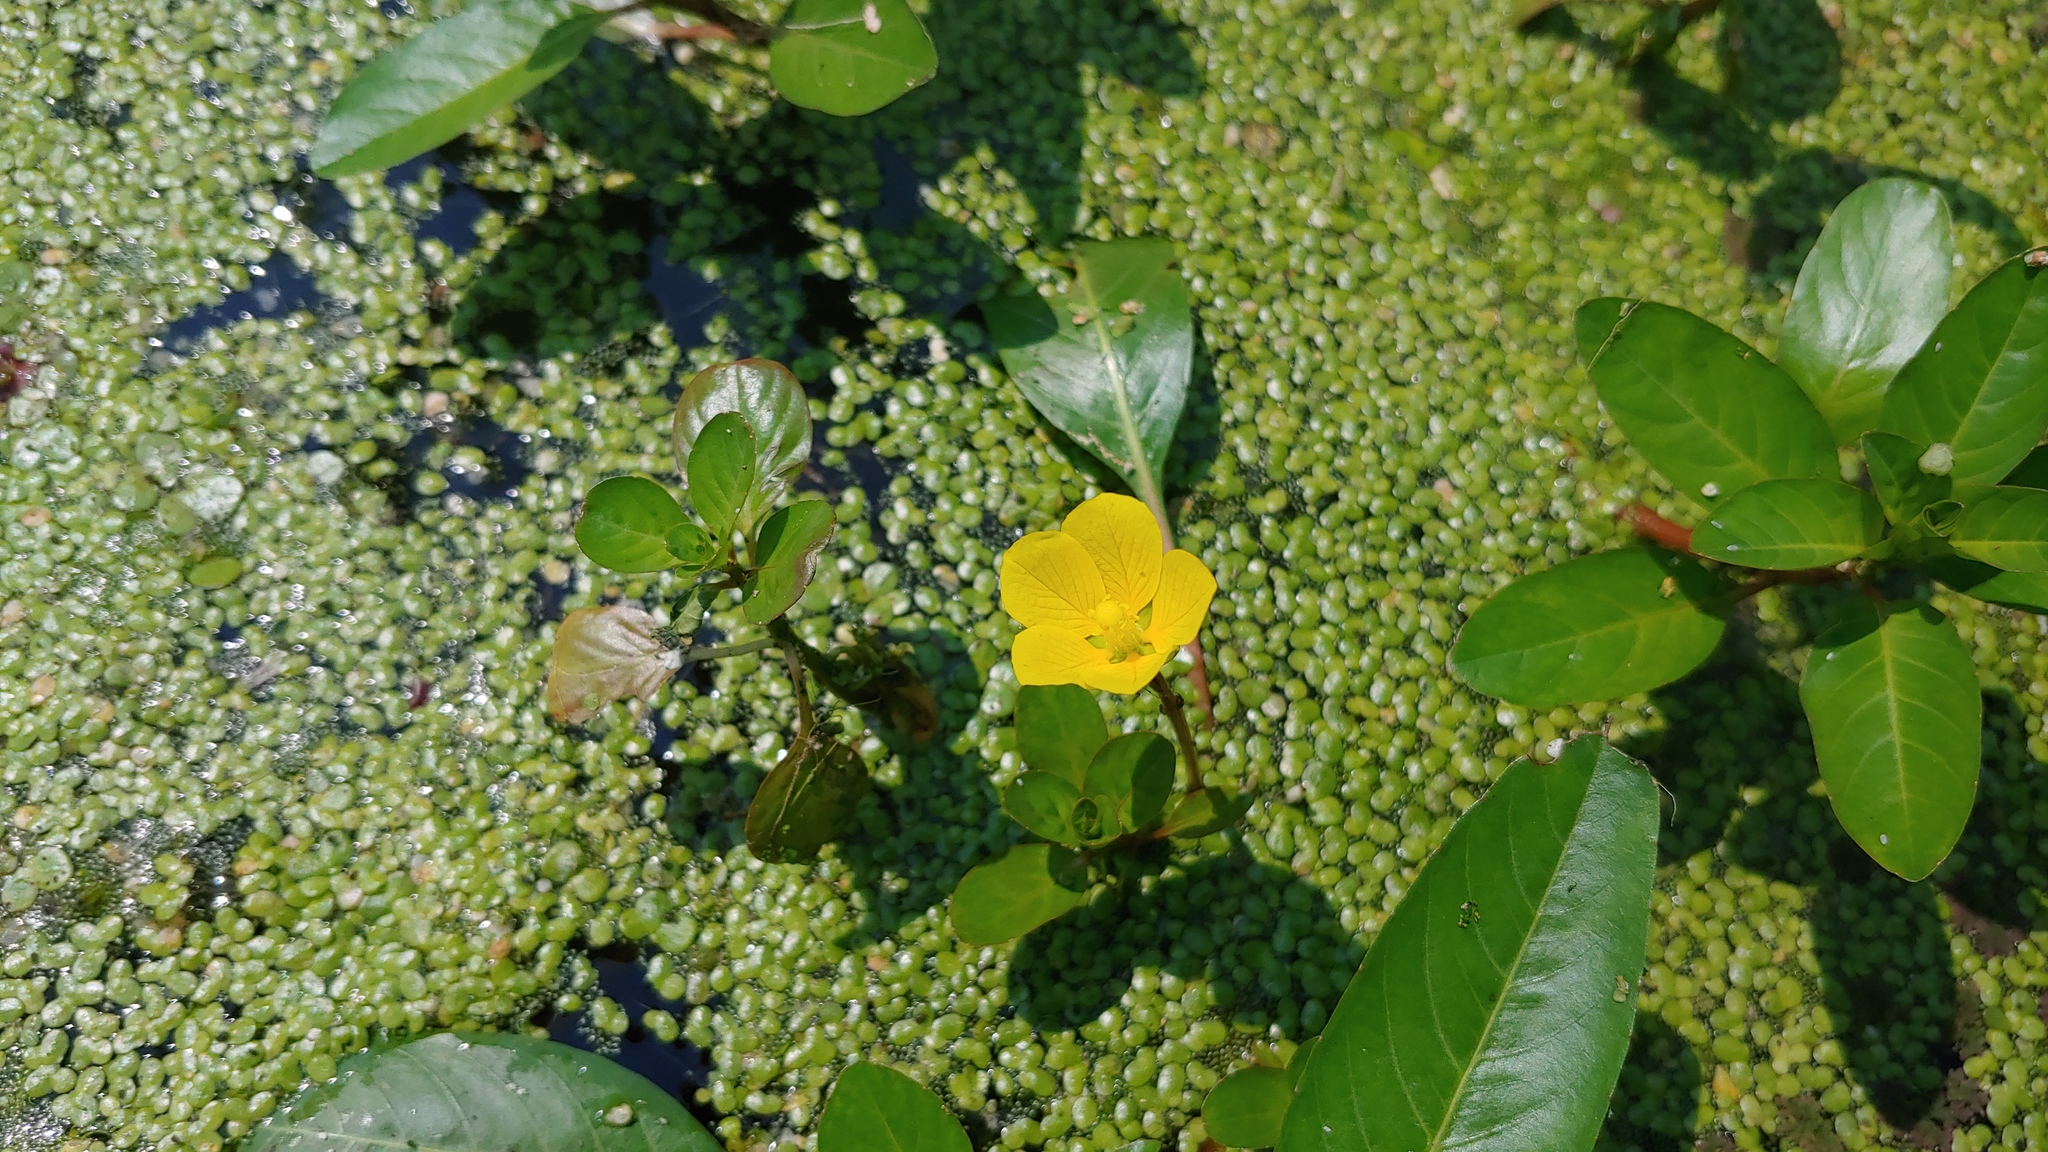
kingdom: Plantae
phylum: Tracheophyta
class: Magnoliopsida
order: Myrtales
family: Onagraceae
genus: Ludwigia
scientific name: Ludwigia peploides
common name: Floating primrose-willow
